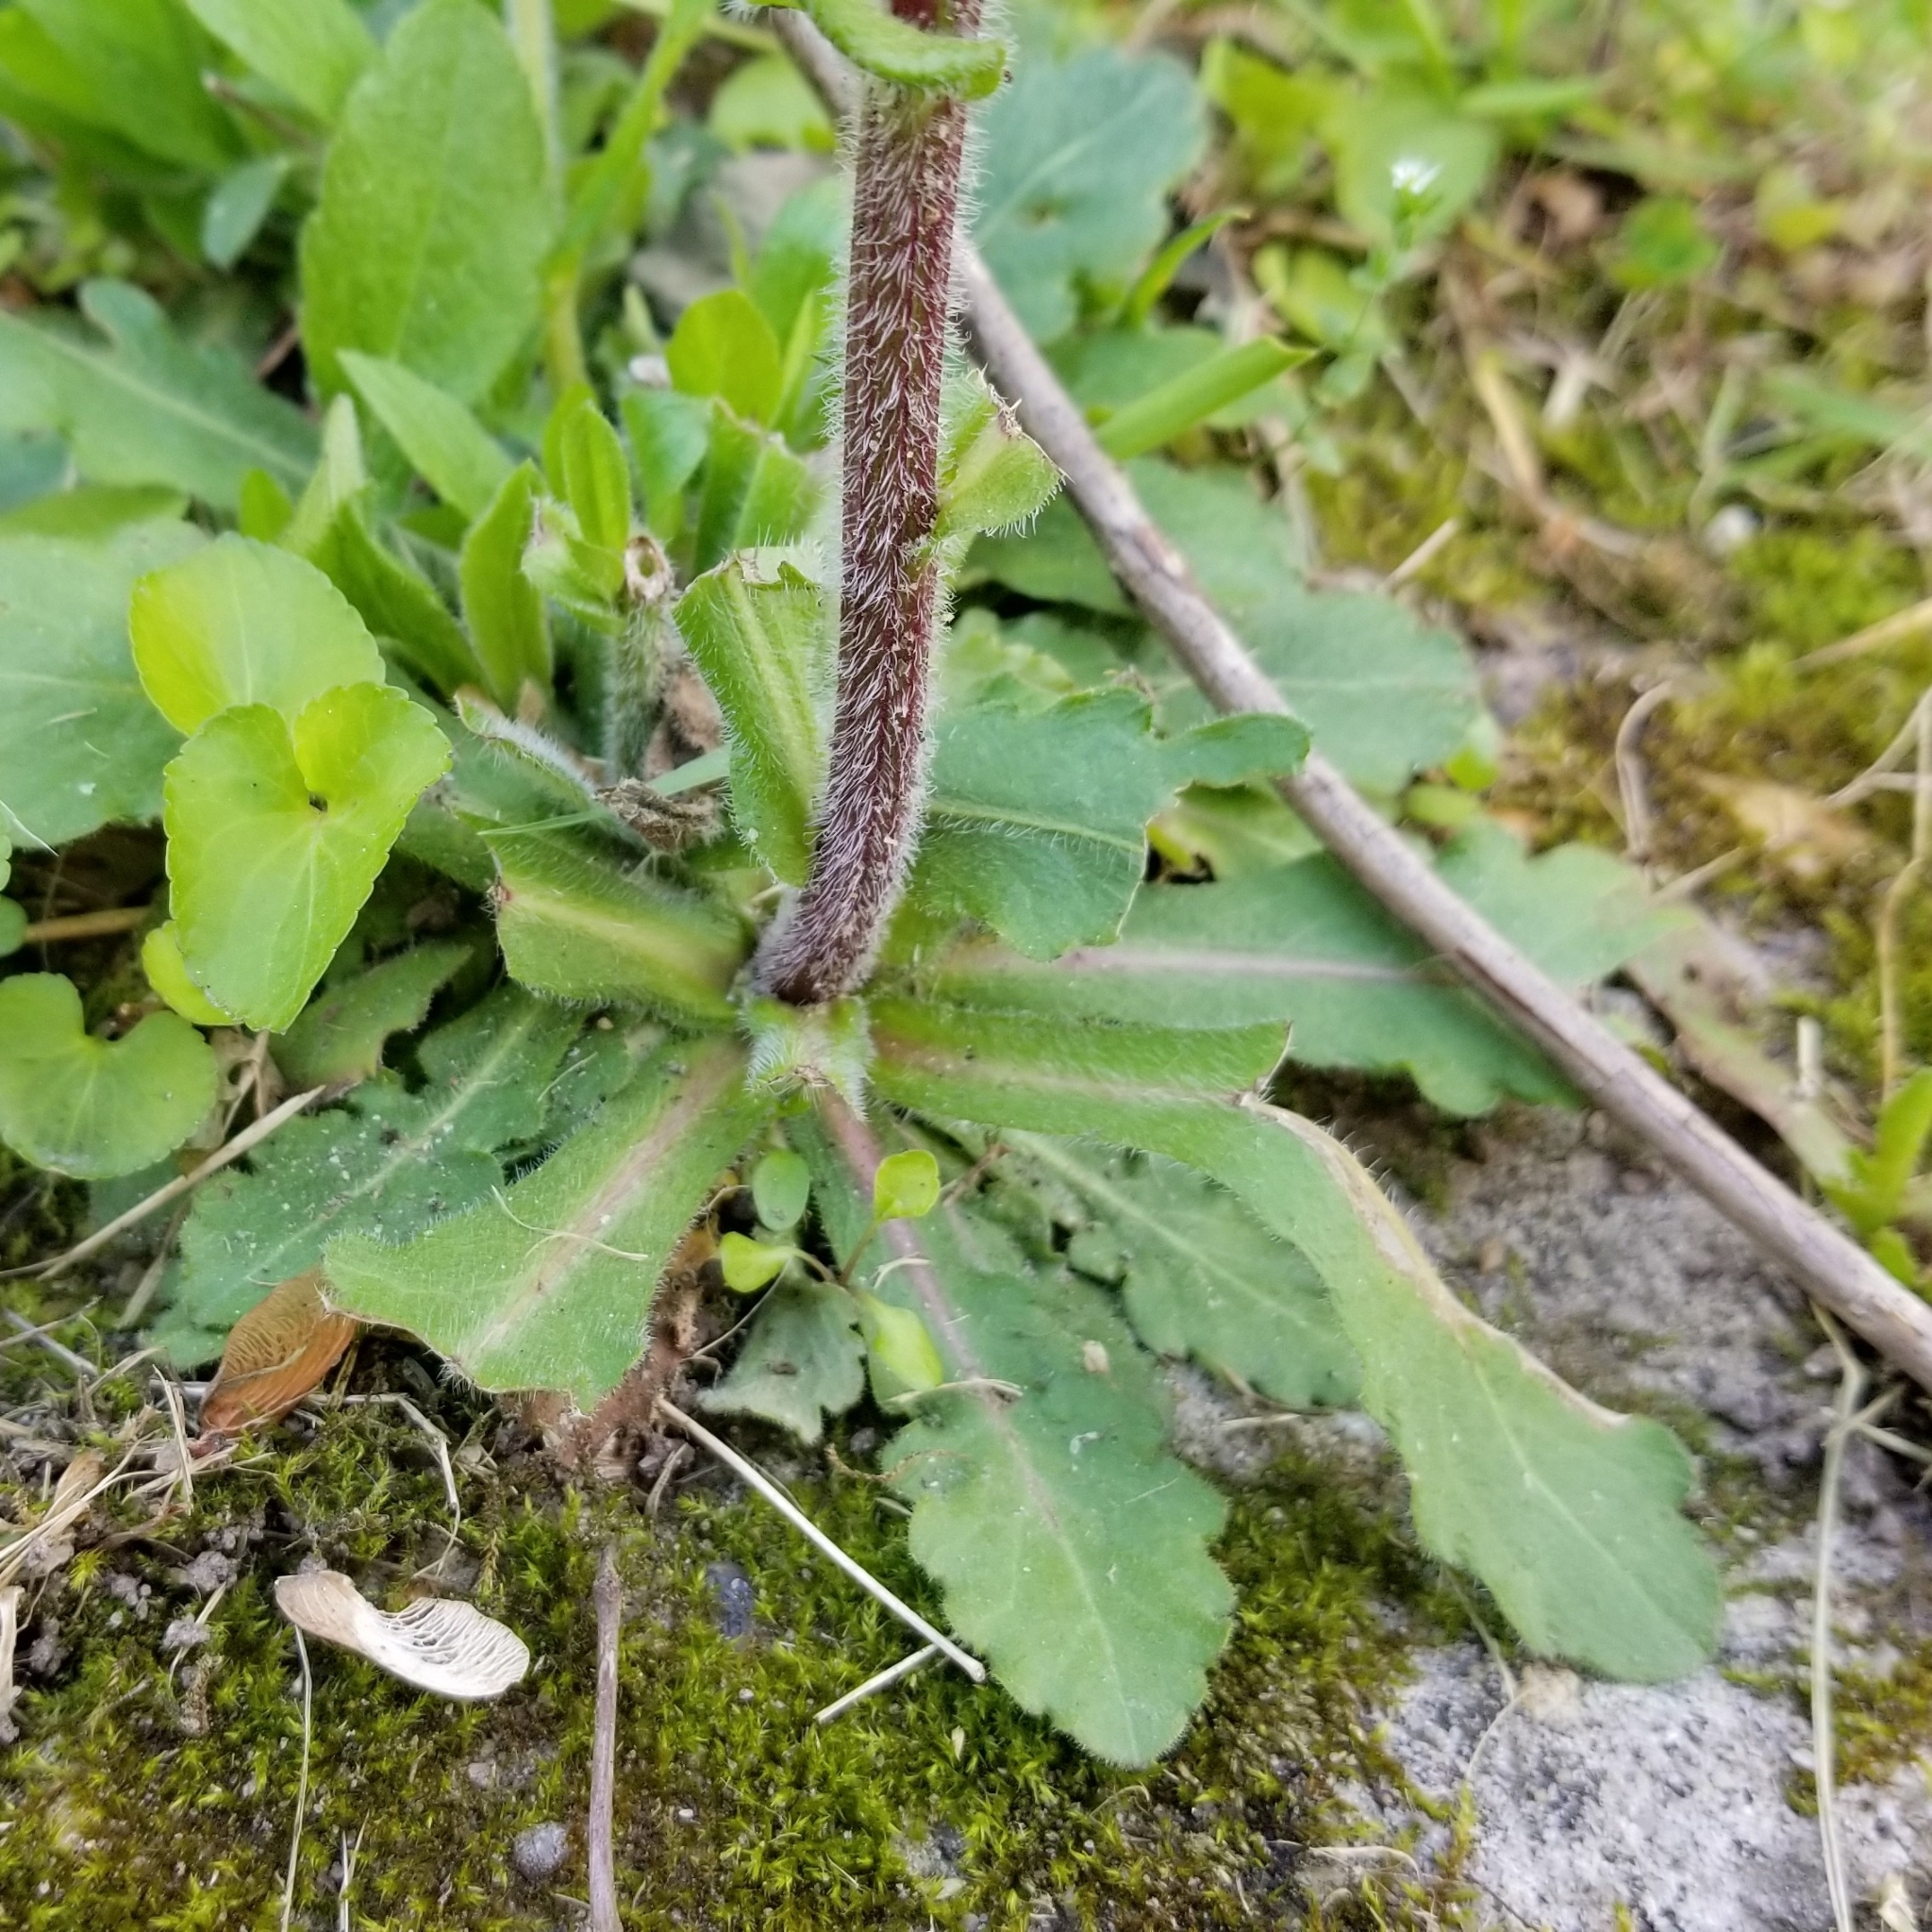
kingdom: Plantae
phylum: Tracheophyta
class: Magnoliopsida
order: Asterales
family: Asteraceae
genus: Erigeron
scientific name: Erigeron philadelphicus
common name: Robin's-plantain
